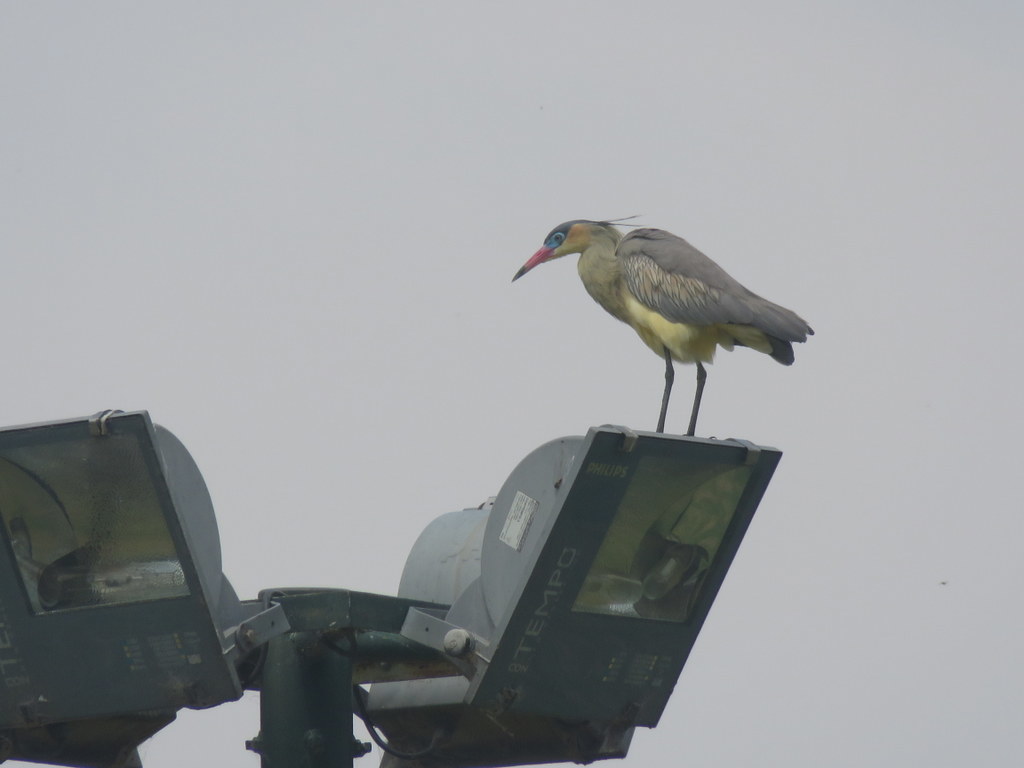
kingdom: Animalia
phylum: Chordata
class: Aves
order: Pelecaniformes
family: Ardeidae
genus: Syrigma
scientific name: Syrigma sibilatrix
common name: Whistling heron
